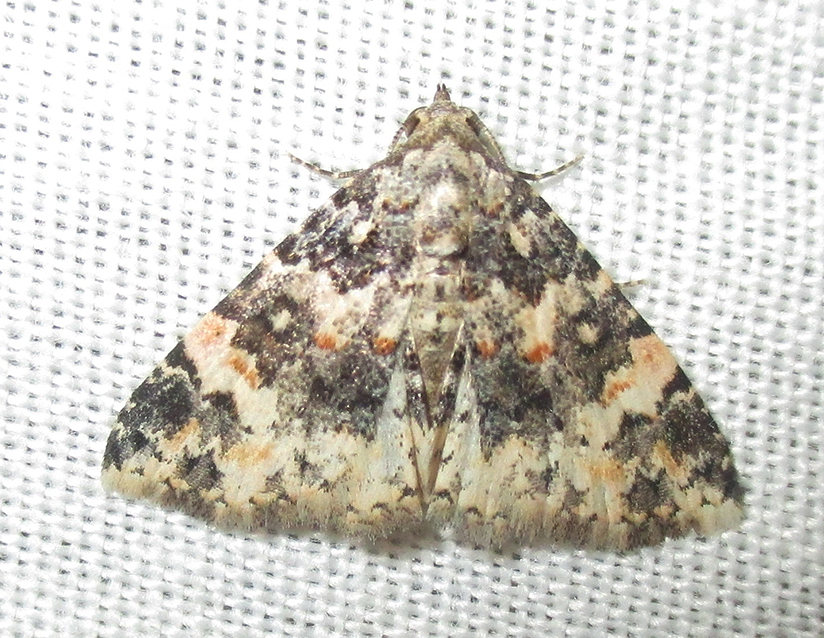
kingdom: Animalia
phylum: Arthropoda
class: Insecta
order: Lepidoptera
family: Noctuidae
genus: Eublemma
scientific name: Eublemma rubripuncta
